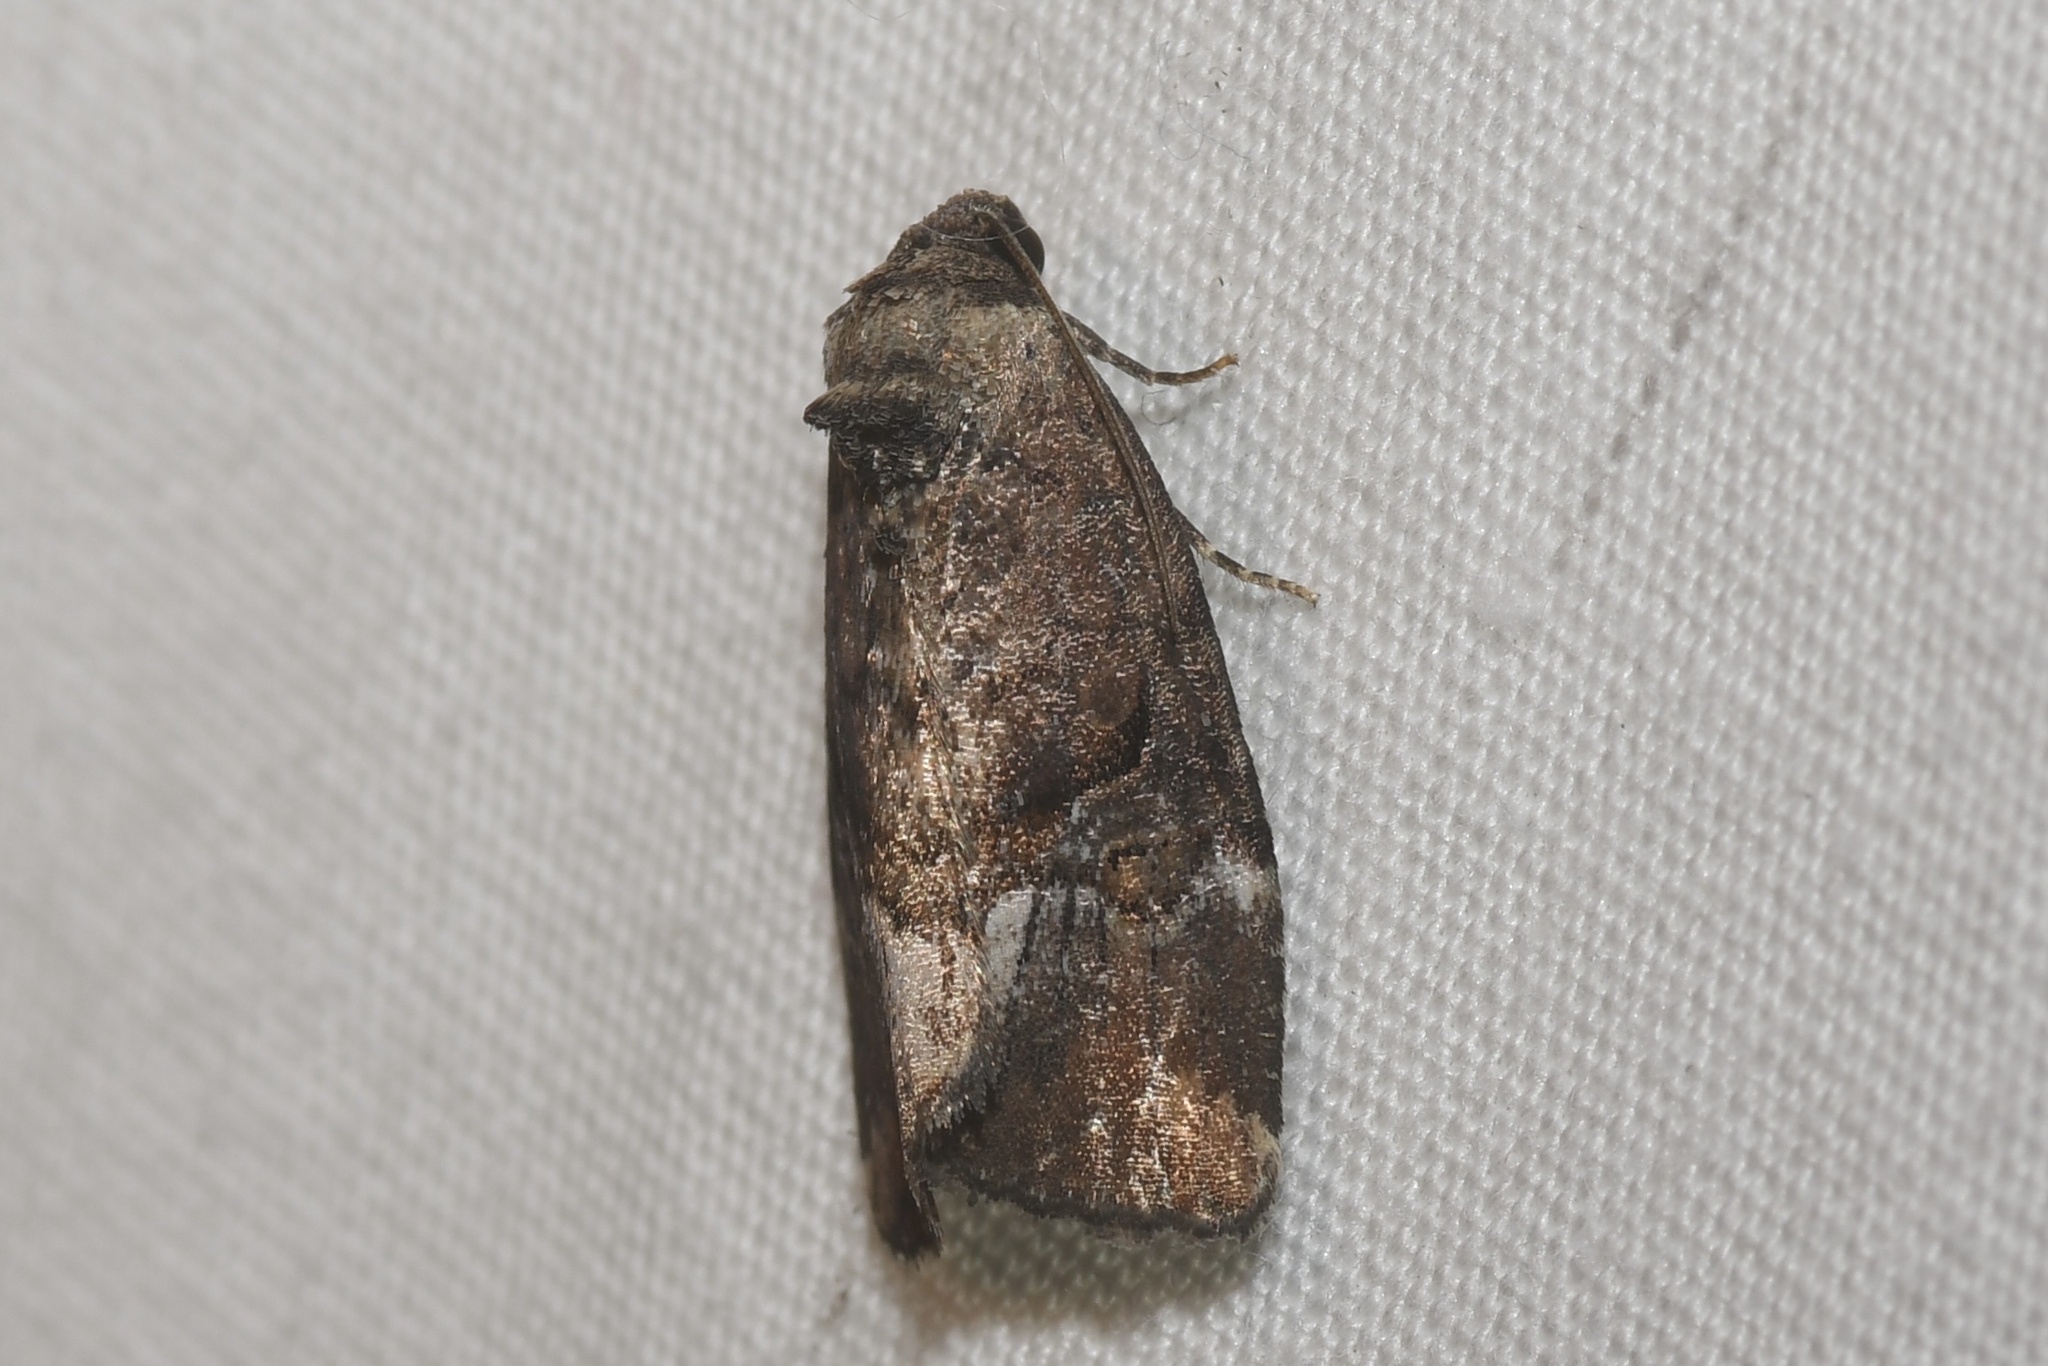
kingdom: Animalia
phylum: Arthropoda
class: Insecta
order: Lepidoptera
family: Noctuidae
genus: Elaphria
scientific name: Elaphria versicolor
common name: Fir harlequin
